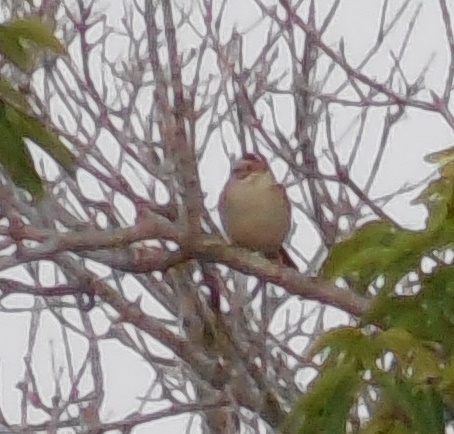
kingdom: Animalia
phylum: Chordata
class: Aves
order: Passeriformes
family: Passerellidae
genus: Spizella
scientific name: Spizella pallida
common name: Clay-colored sparrow
